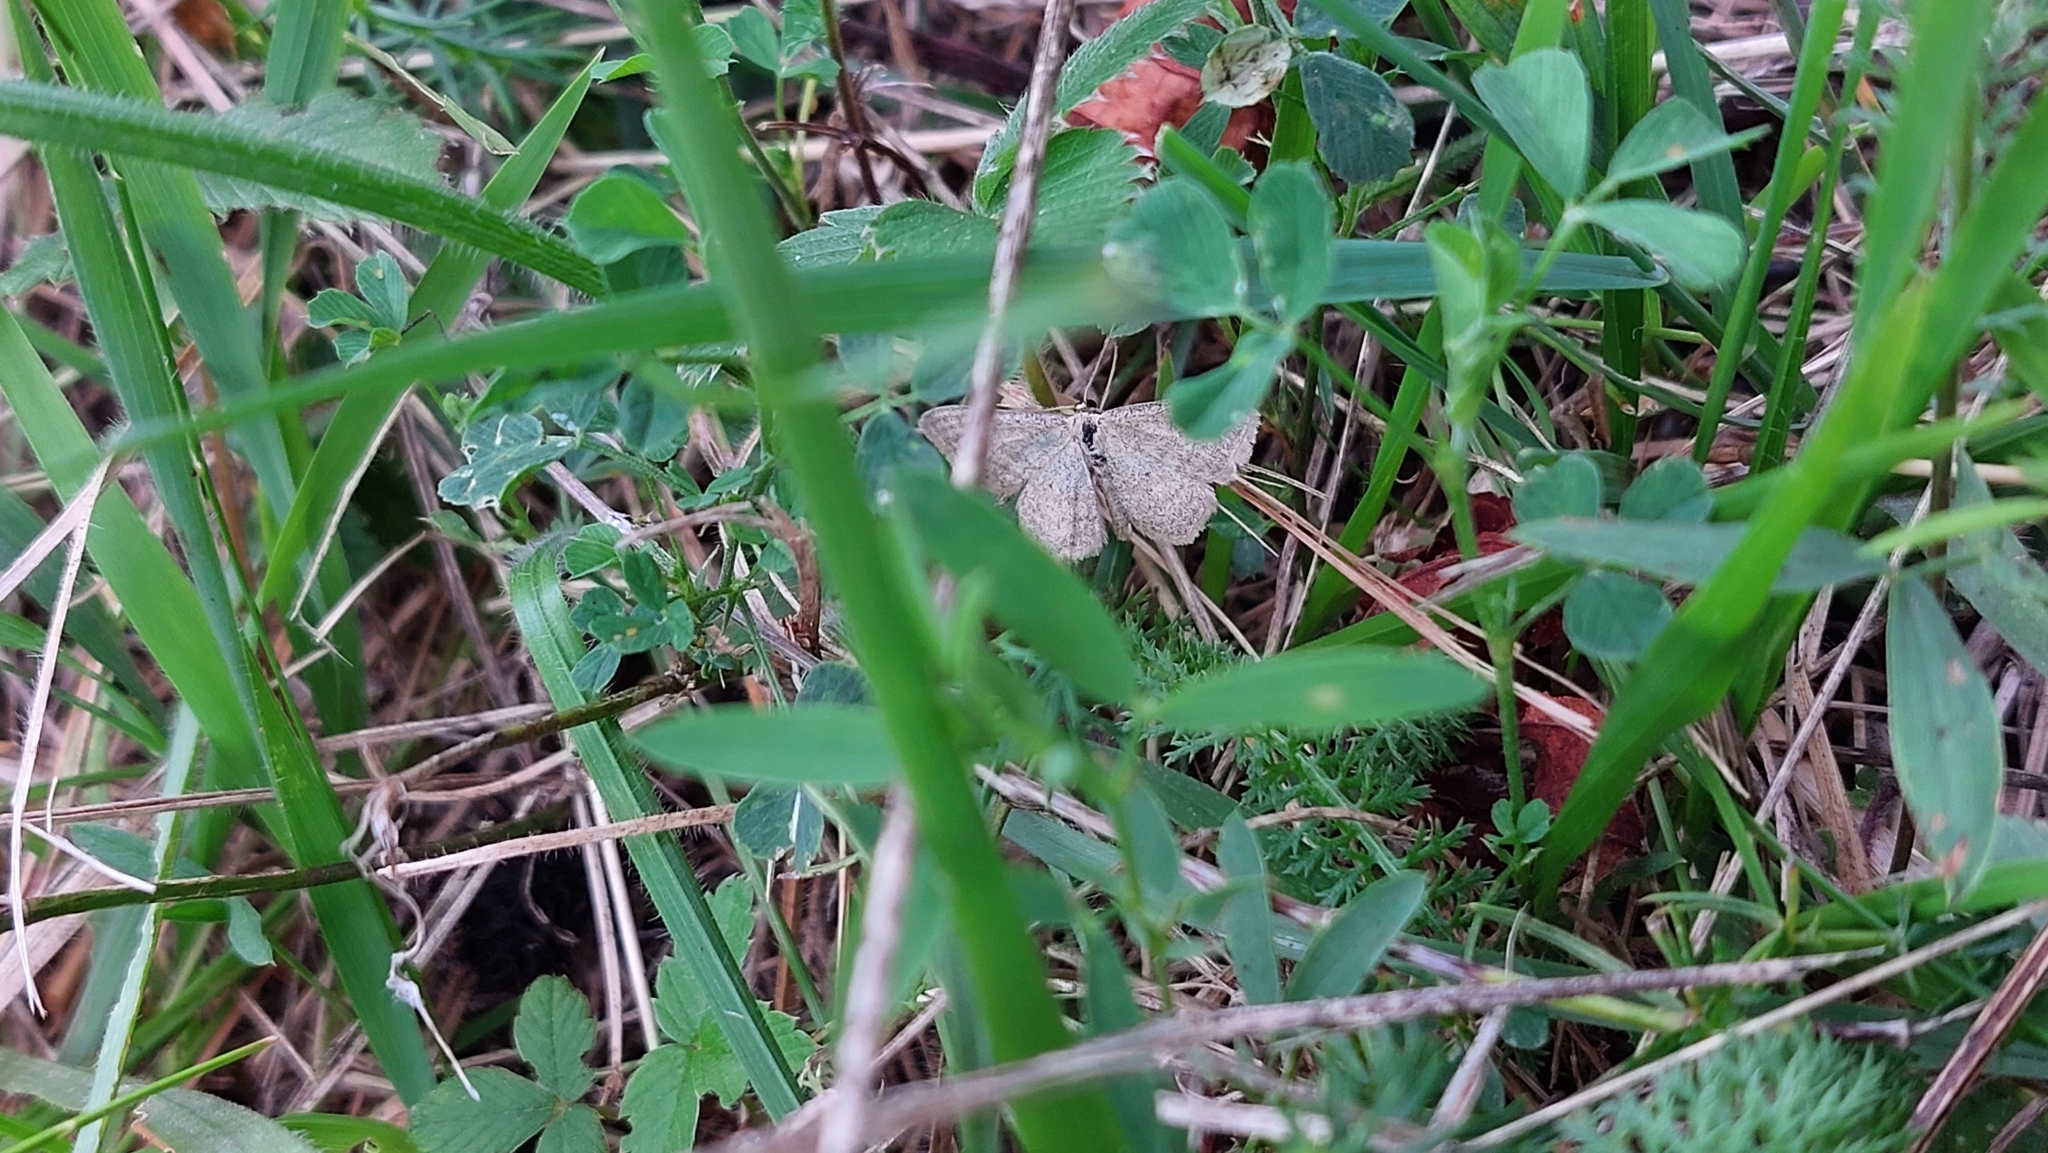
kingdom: Animalia
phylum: Arthropoda
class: Insecta
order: Lepidoptera
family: Geometridae
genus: Scopula
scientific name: Scopula virgulata
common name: Streaked wave
